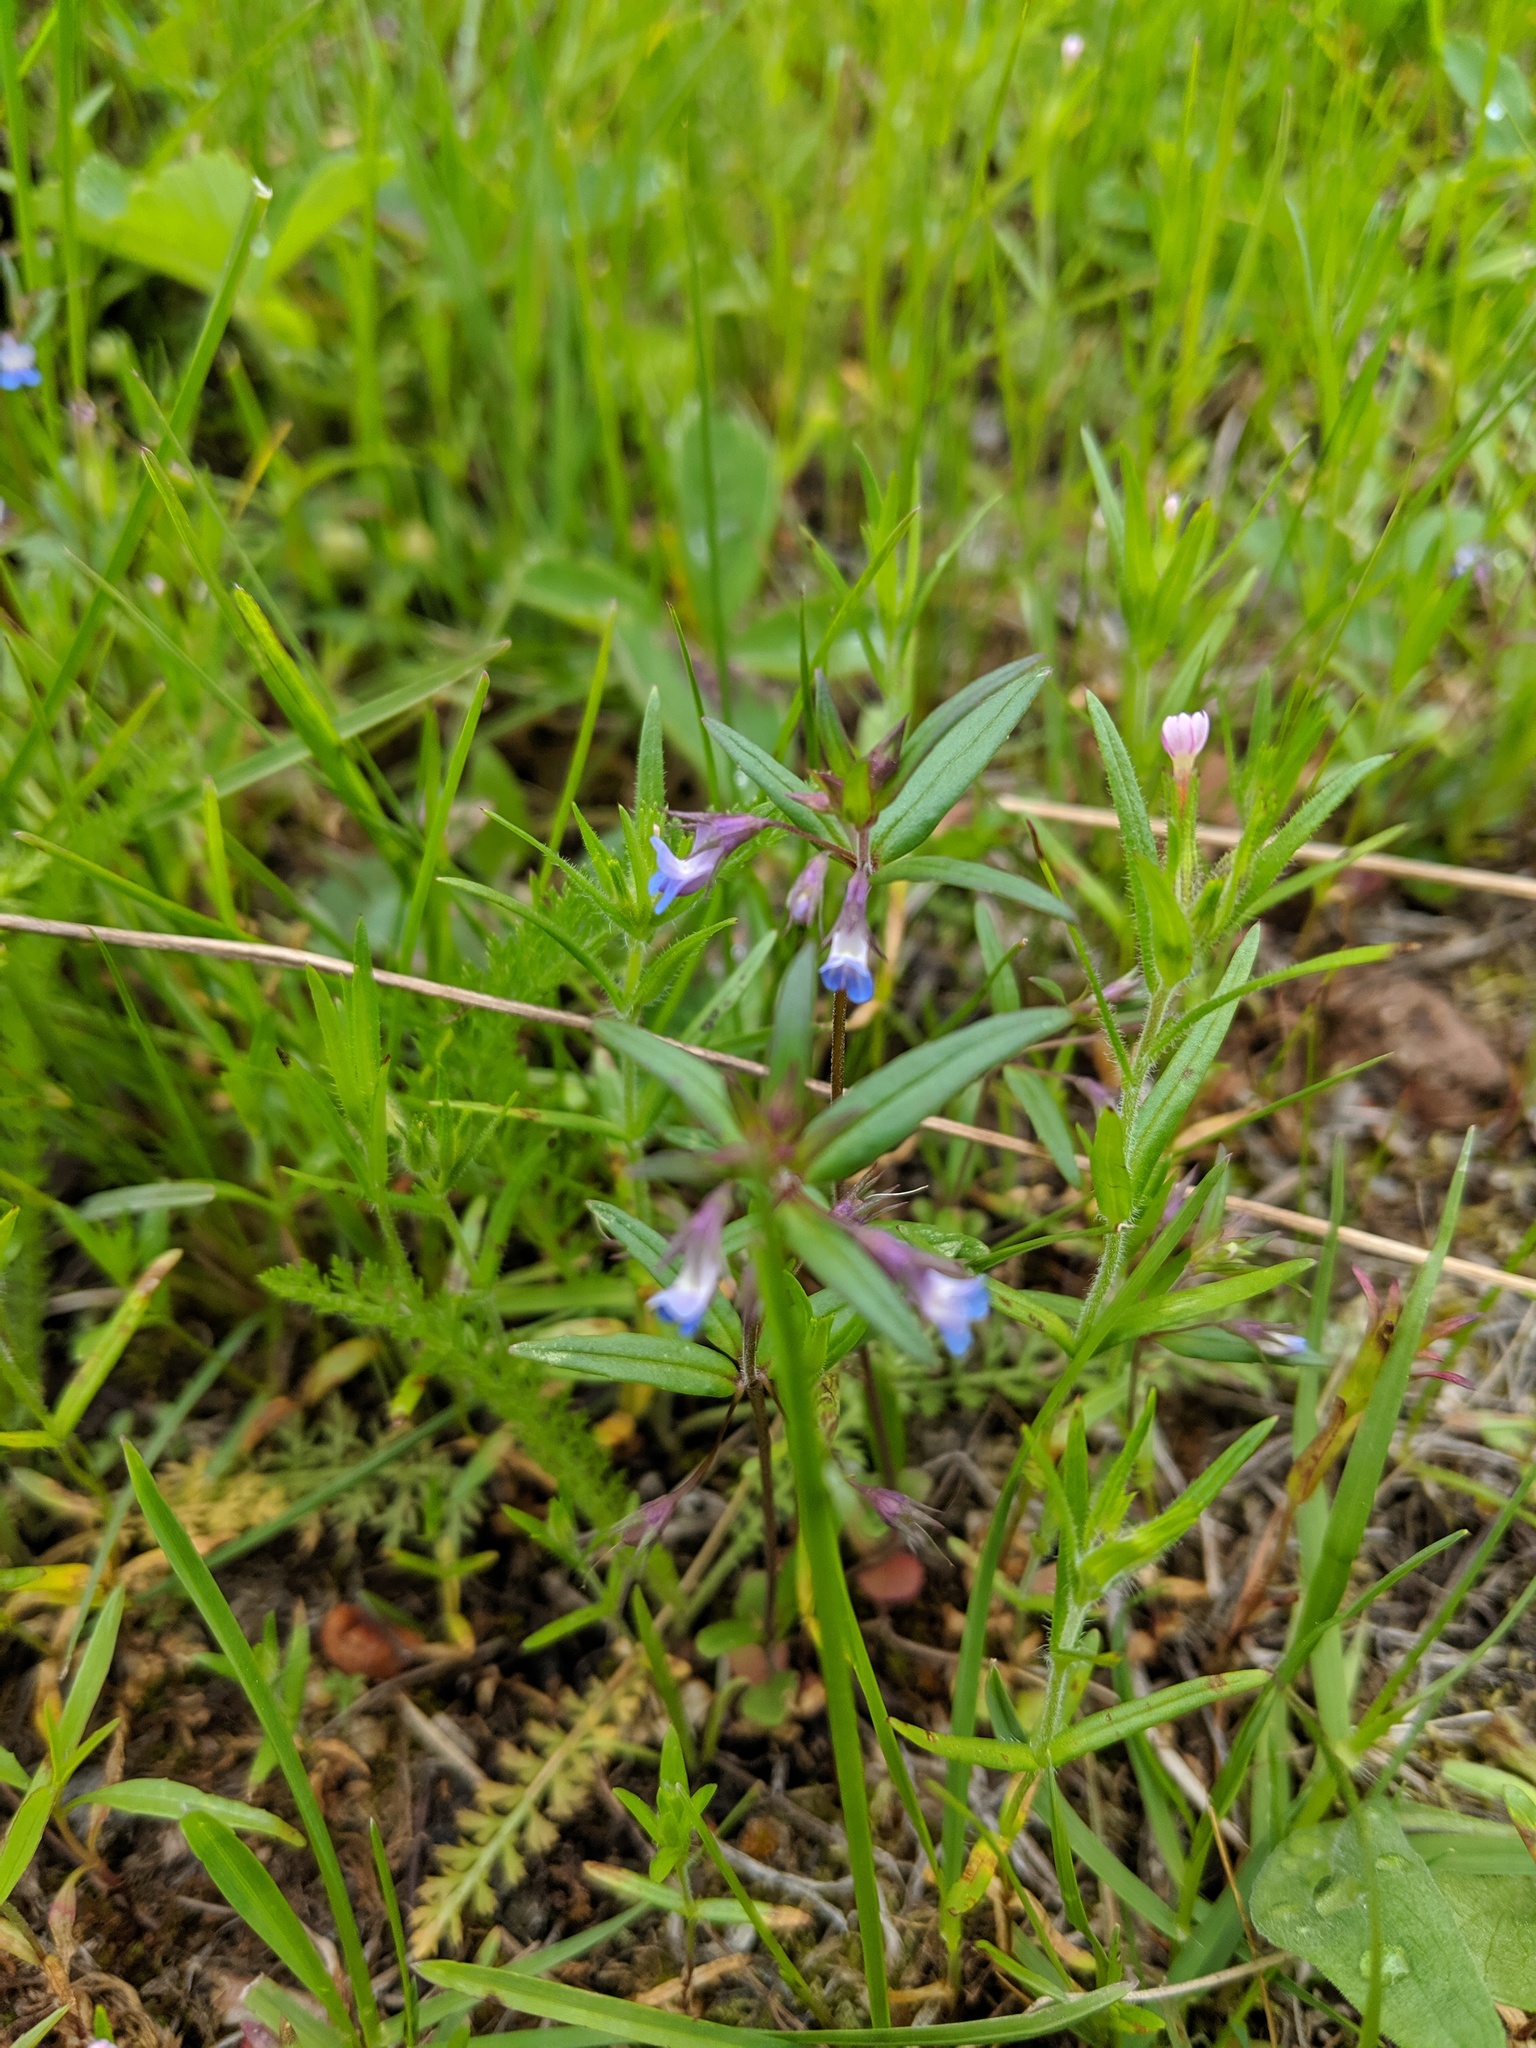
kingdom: Plantae
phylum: Tracheophyta
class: Magnoliopsida
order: Lamiales
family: Plantaginaceae
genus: Collinsia
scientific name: Collinsia parviflora
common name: Blue-lips
